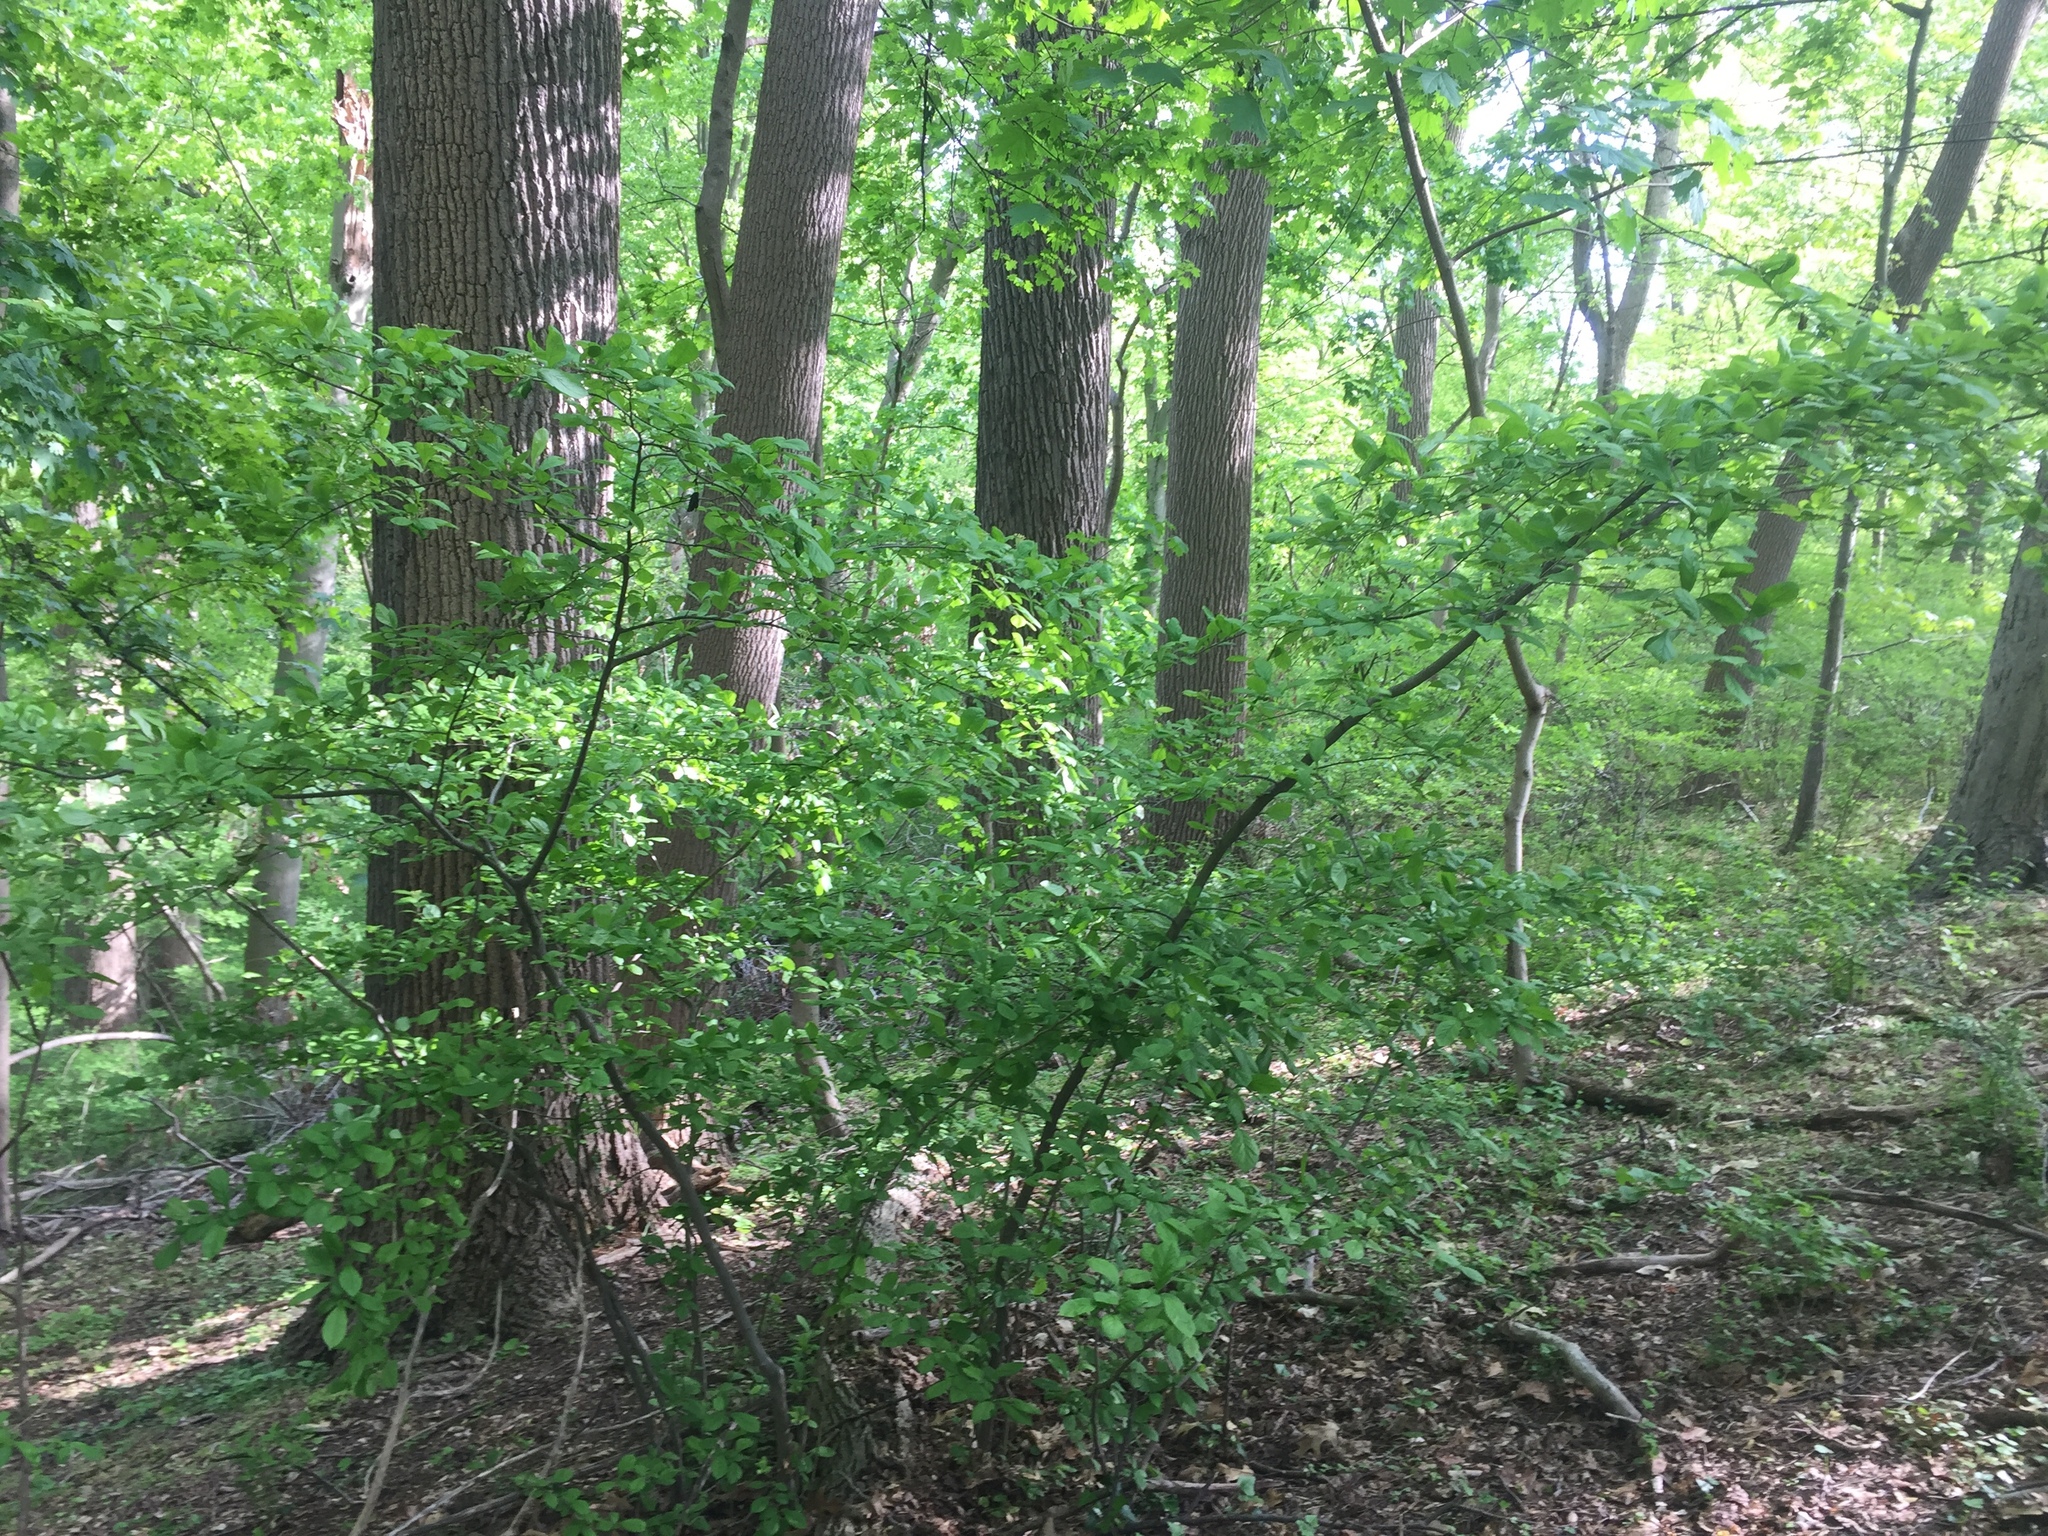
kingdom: Plantae
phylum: Tracheophyta
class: Magnoliopsida
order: Rosales
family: Rosaceae
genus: Pourthiaea
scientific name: Pourthiaea villosa
